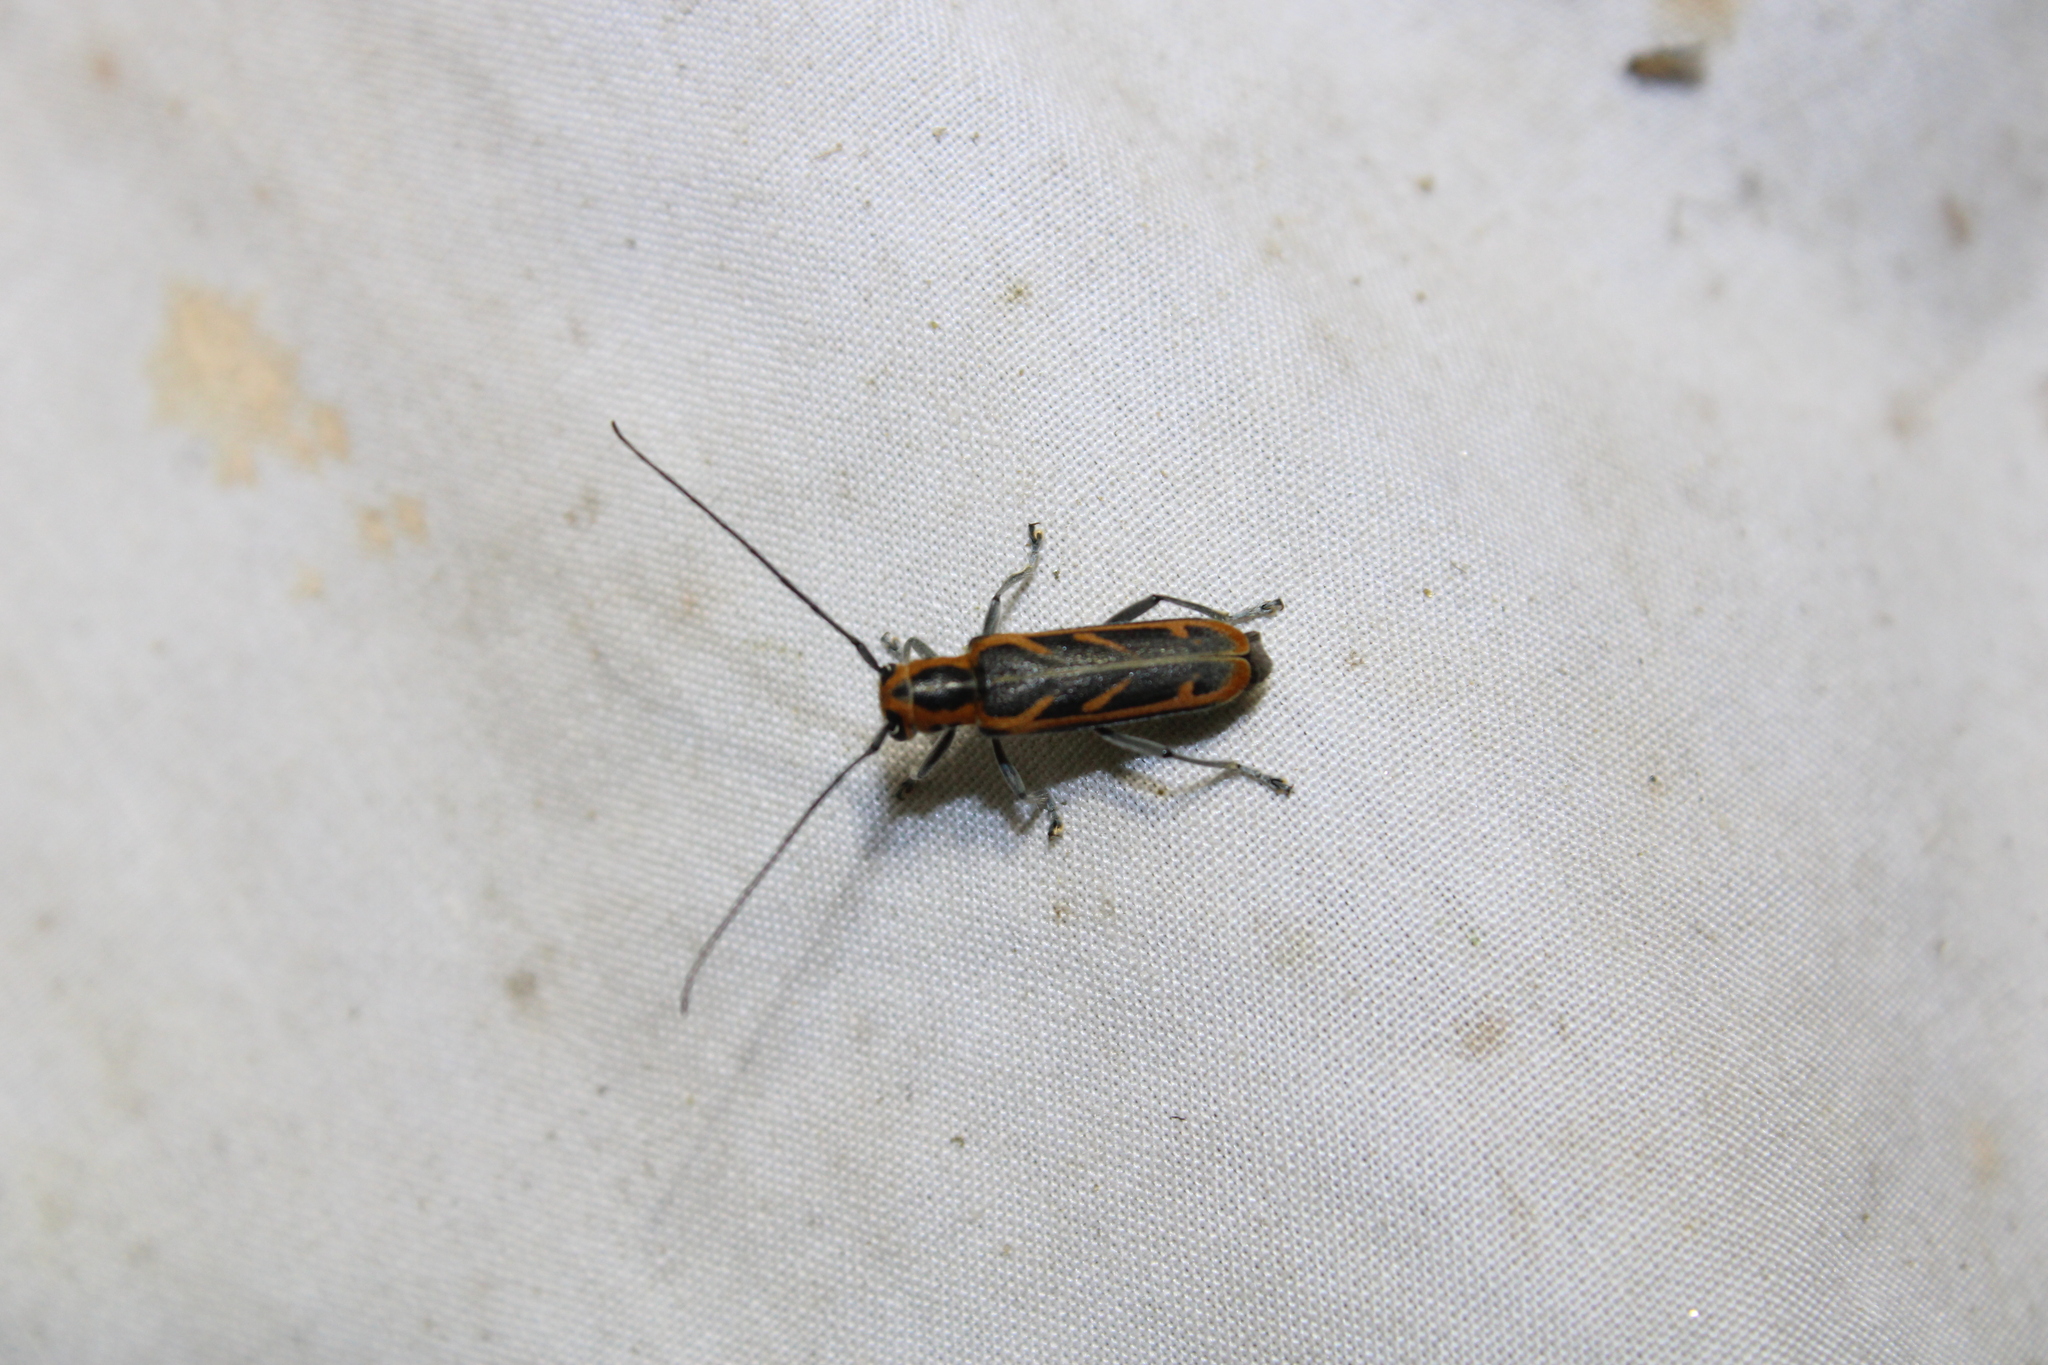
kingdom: Animalia
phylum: Arthropoda
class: Insecta
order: Coleoptera
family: Cerambycidae
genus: Saperda
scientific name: Saperda tridentata
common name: Elm borer
